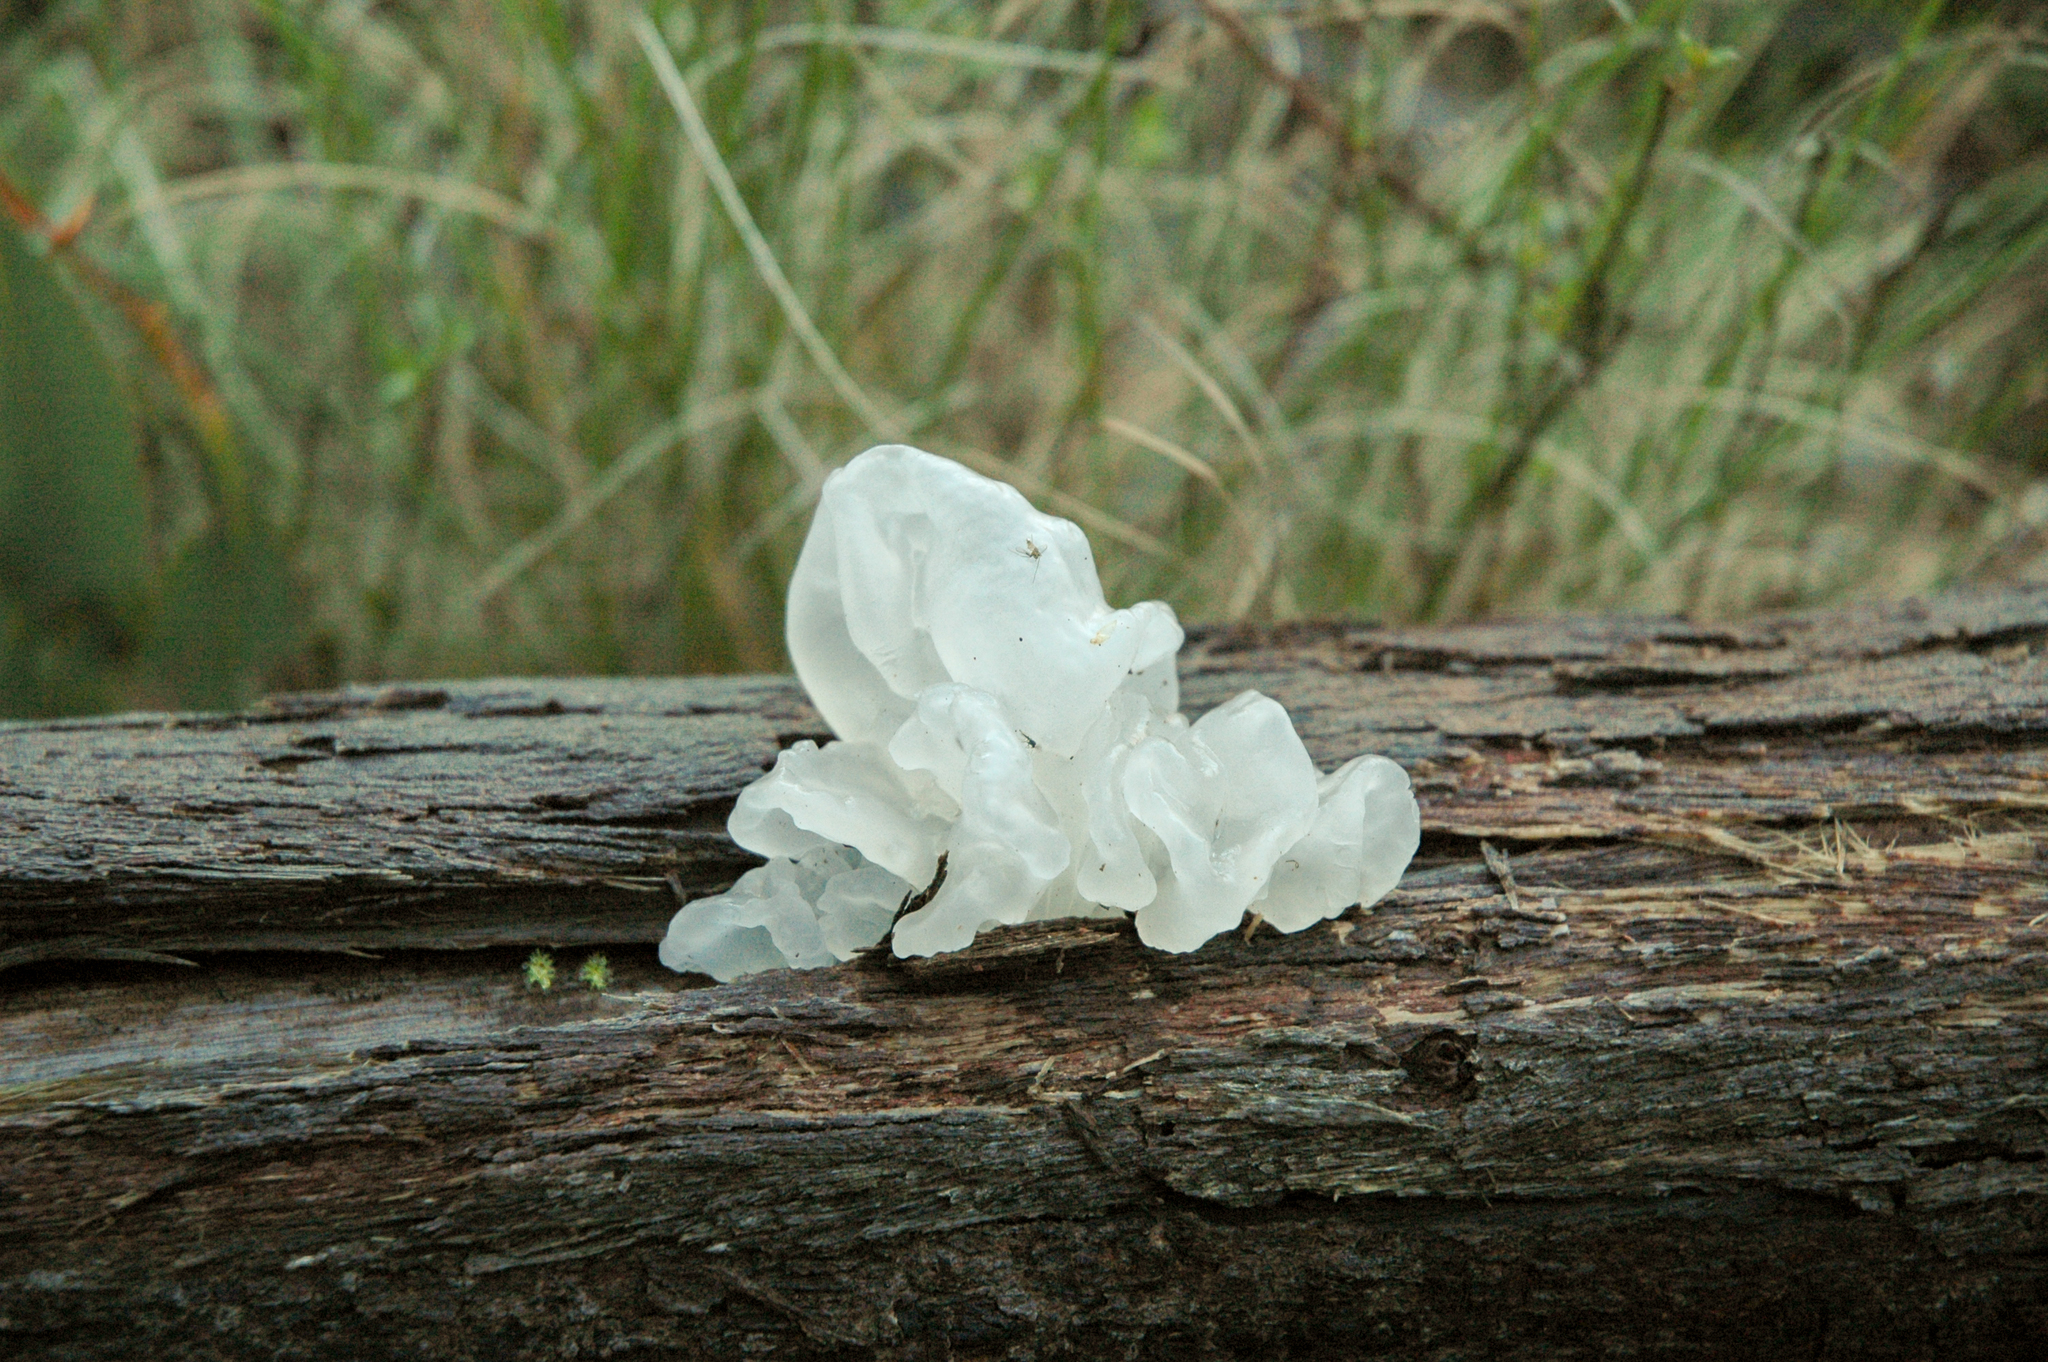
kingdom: Fungi
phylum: Basidiomycota
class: Tremellomycetes
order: Tremellales
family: Tremellaceae
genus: Tremella
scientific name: Tremella fuciformis
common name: Snow fungus
